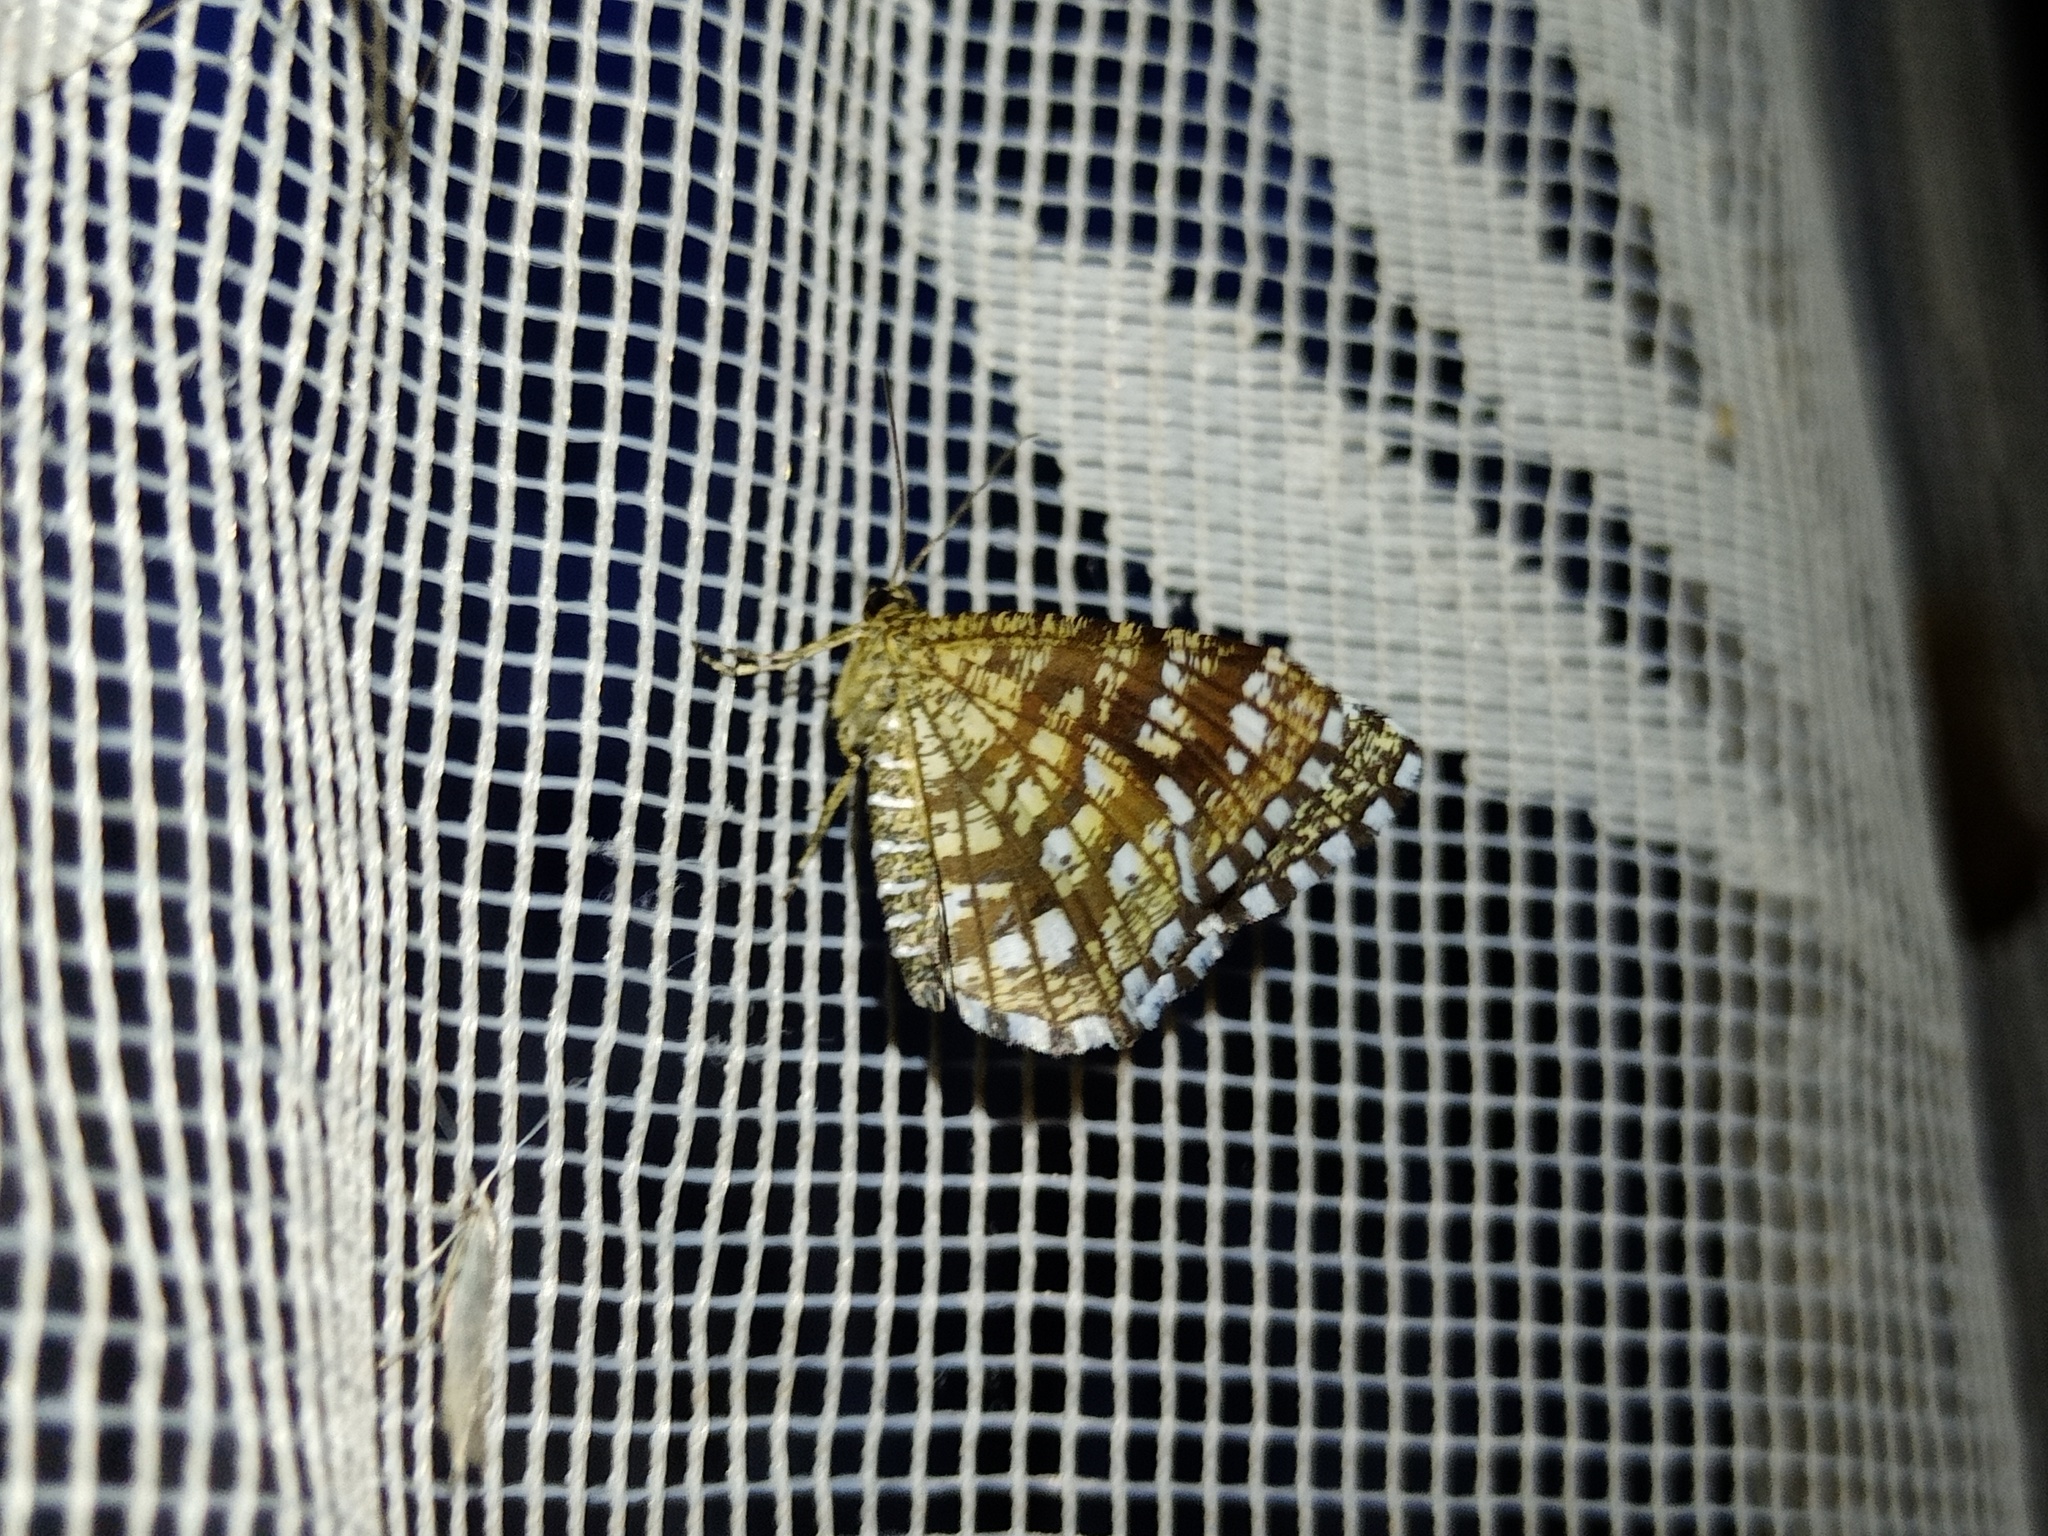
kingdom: Animalia
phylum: Arthropoda
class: Insecta
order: Lepidoptera
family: Geometridae
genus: Chiasmia
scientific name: Chiasmia clathrata
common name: Latticed heath
